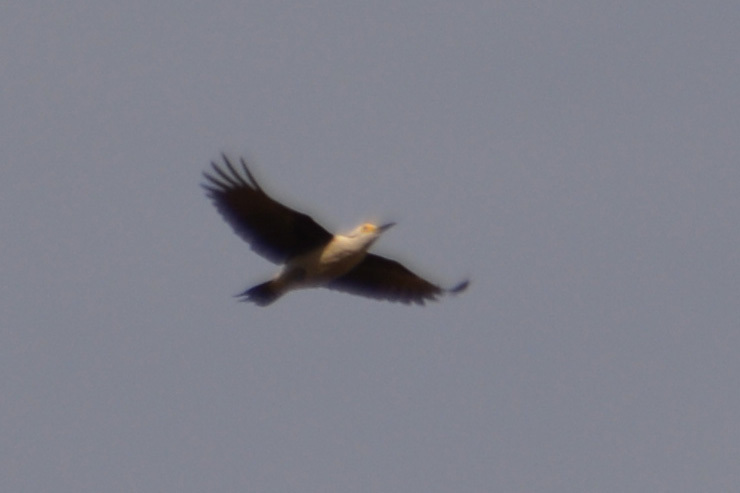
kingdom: Animalia
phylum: Chordata
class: Aves
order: Piciformes
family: Picidae
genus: Melanerpes
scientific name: Melanerpes candidus
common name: White woodpecker
